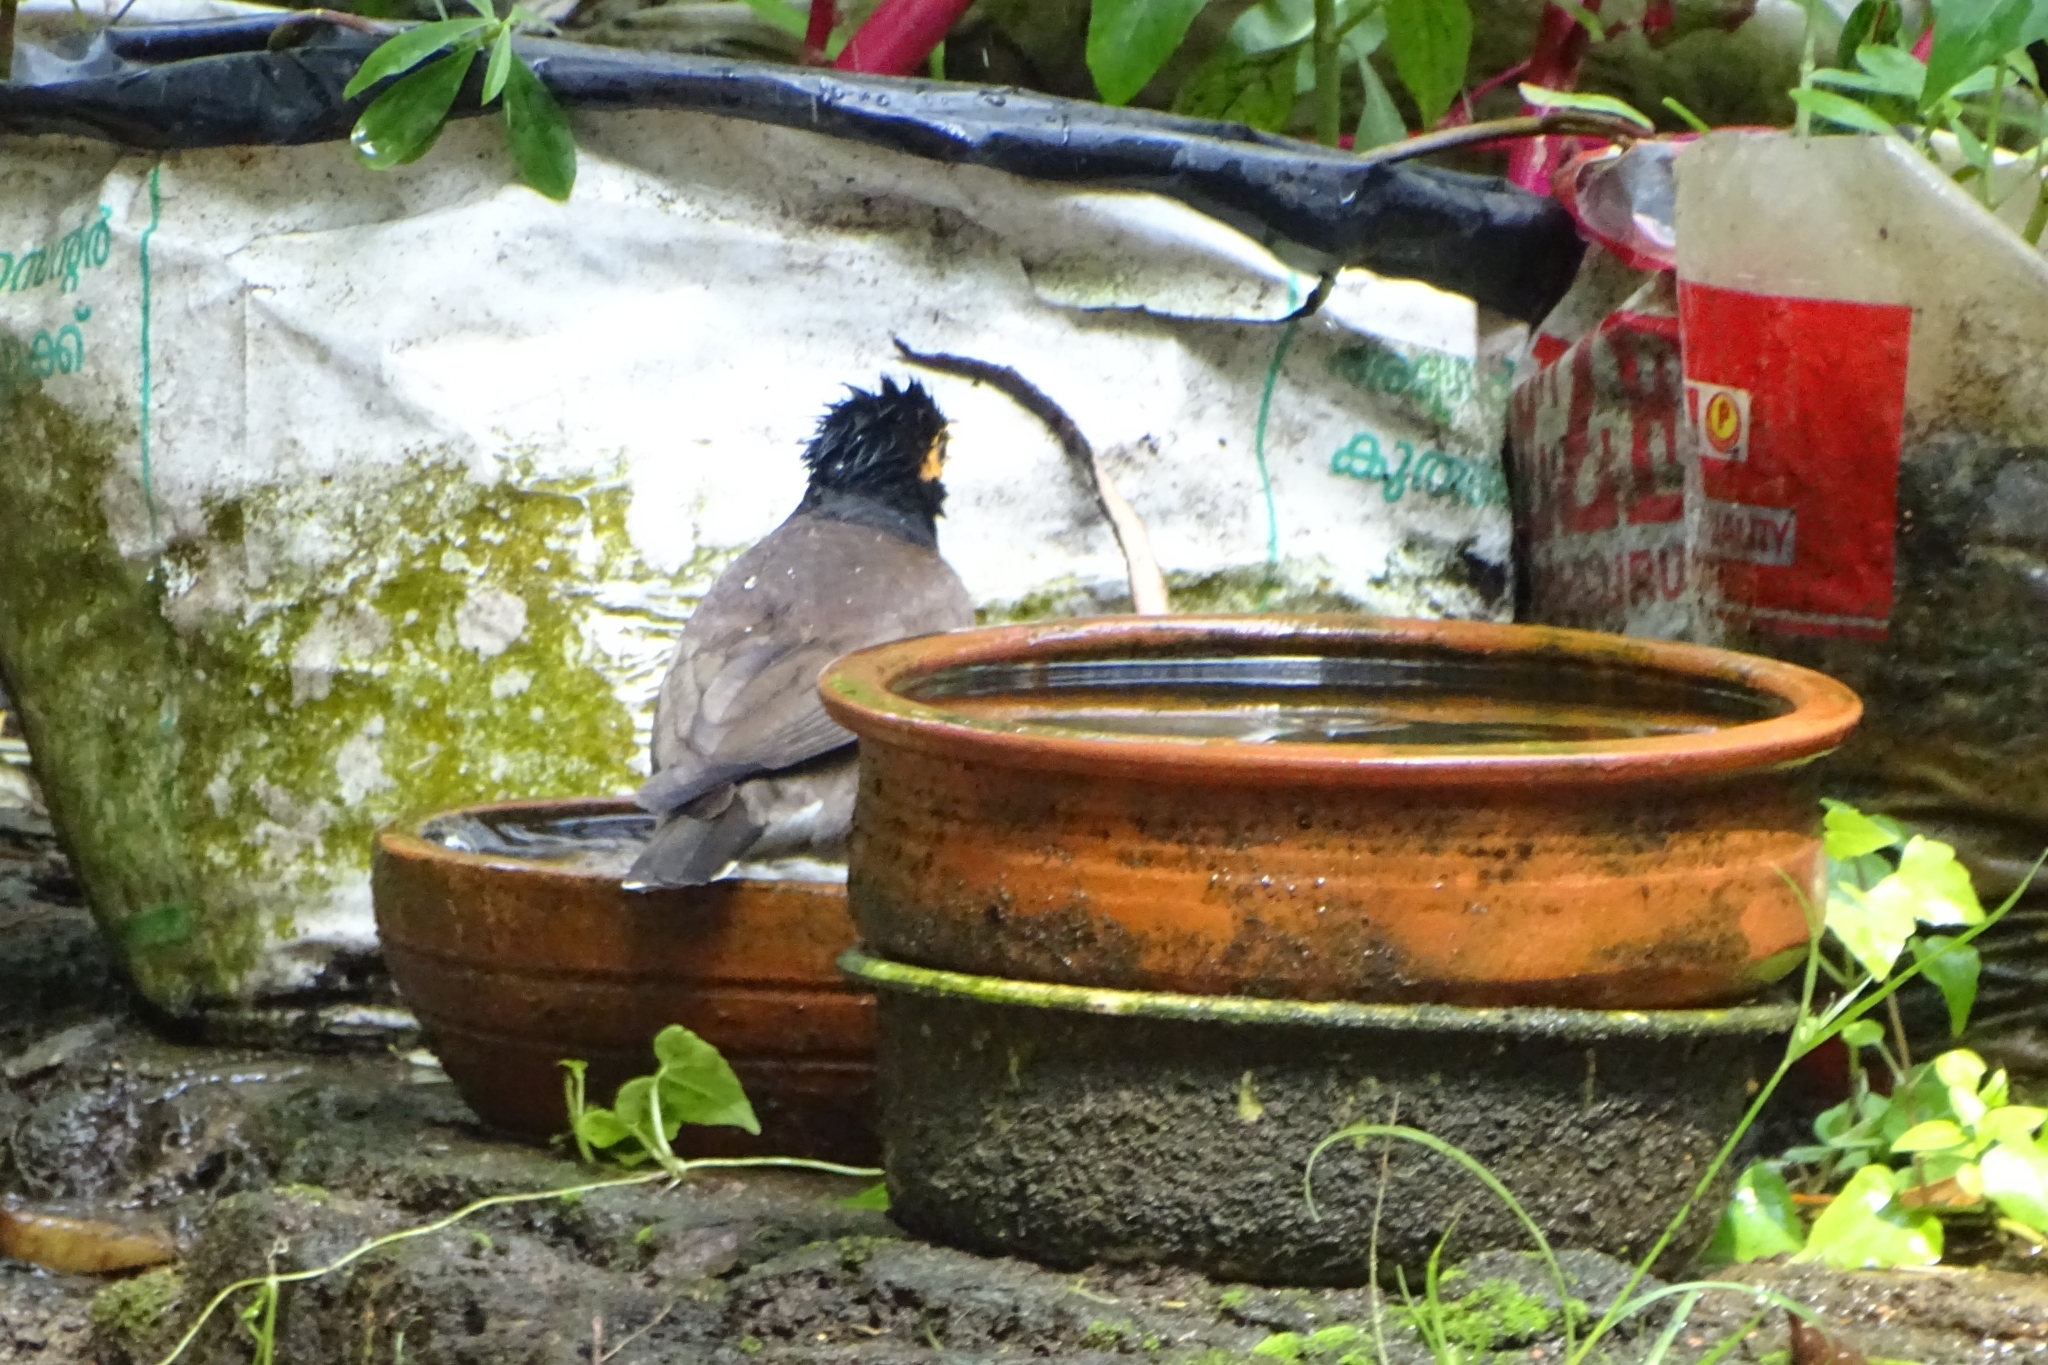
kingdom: Animalia
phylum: Chordata
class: Aves
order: Passeriformes
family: Sturnidae
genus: Acridotheres
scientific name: Acridotheres tristis
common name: Common myna
